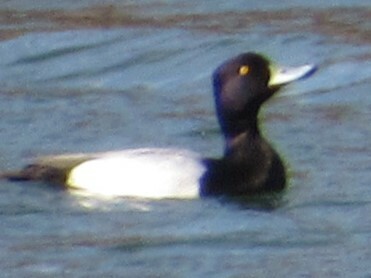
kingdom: Animalia
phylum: Chordata
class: Aves
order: Anseriformes
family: Anatidae
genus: Aythya
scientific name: Aythya affinis
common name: Lesser scaup
